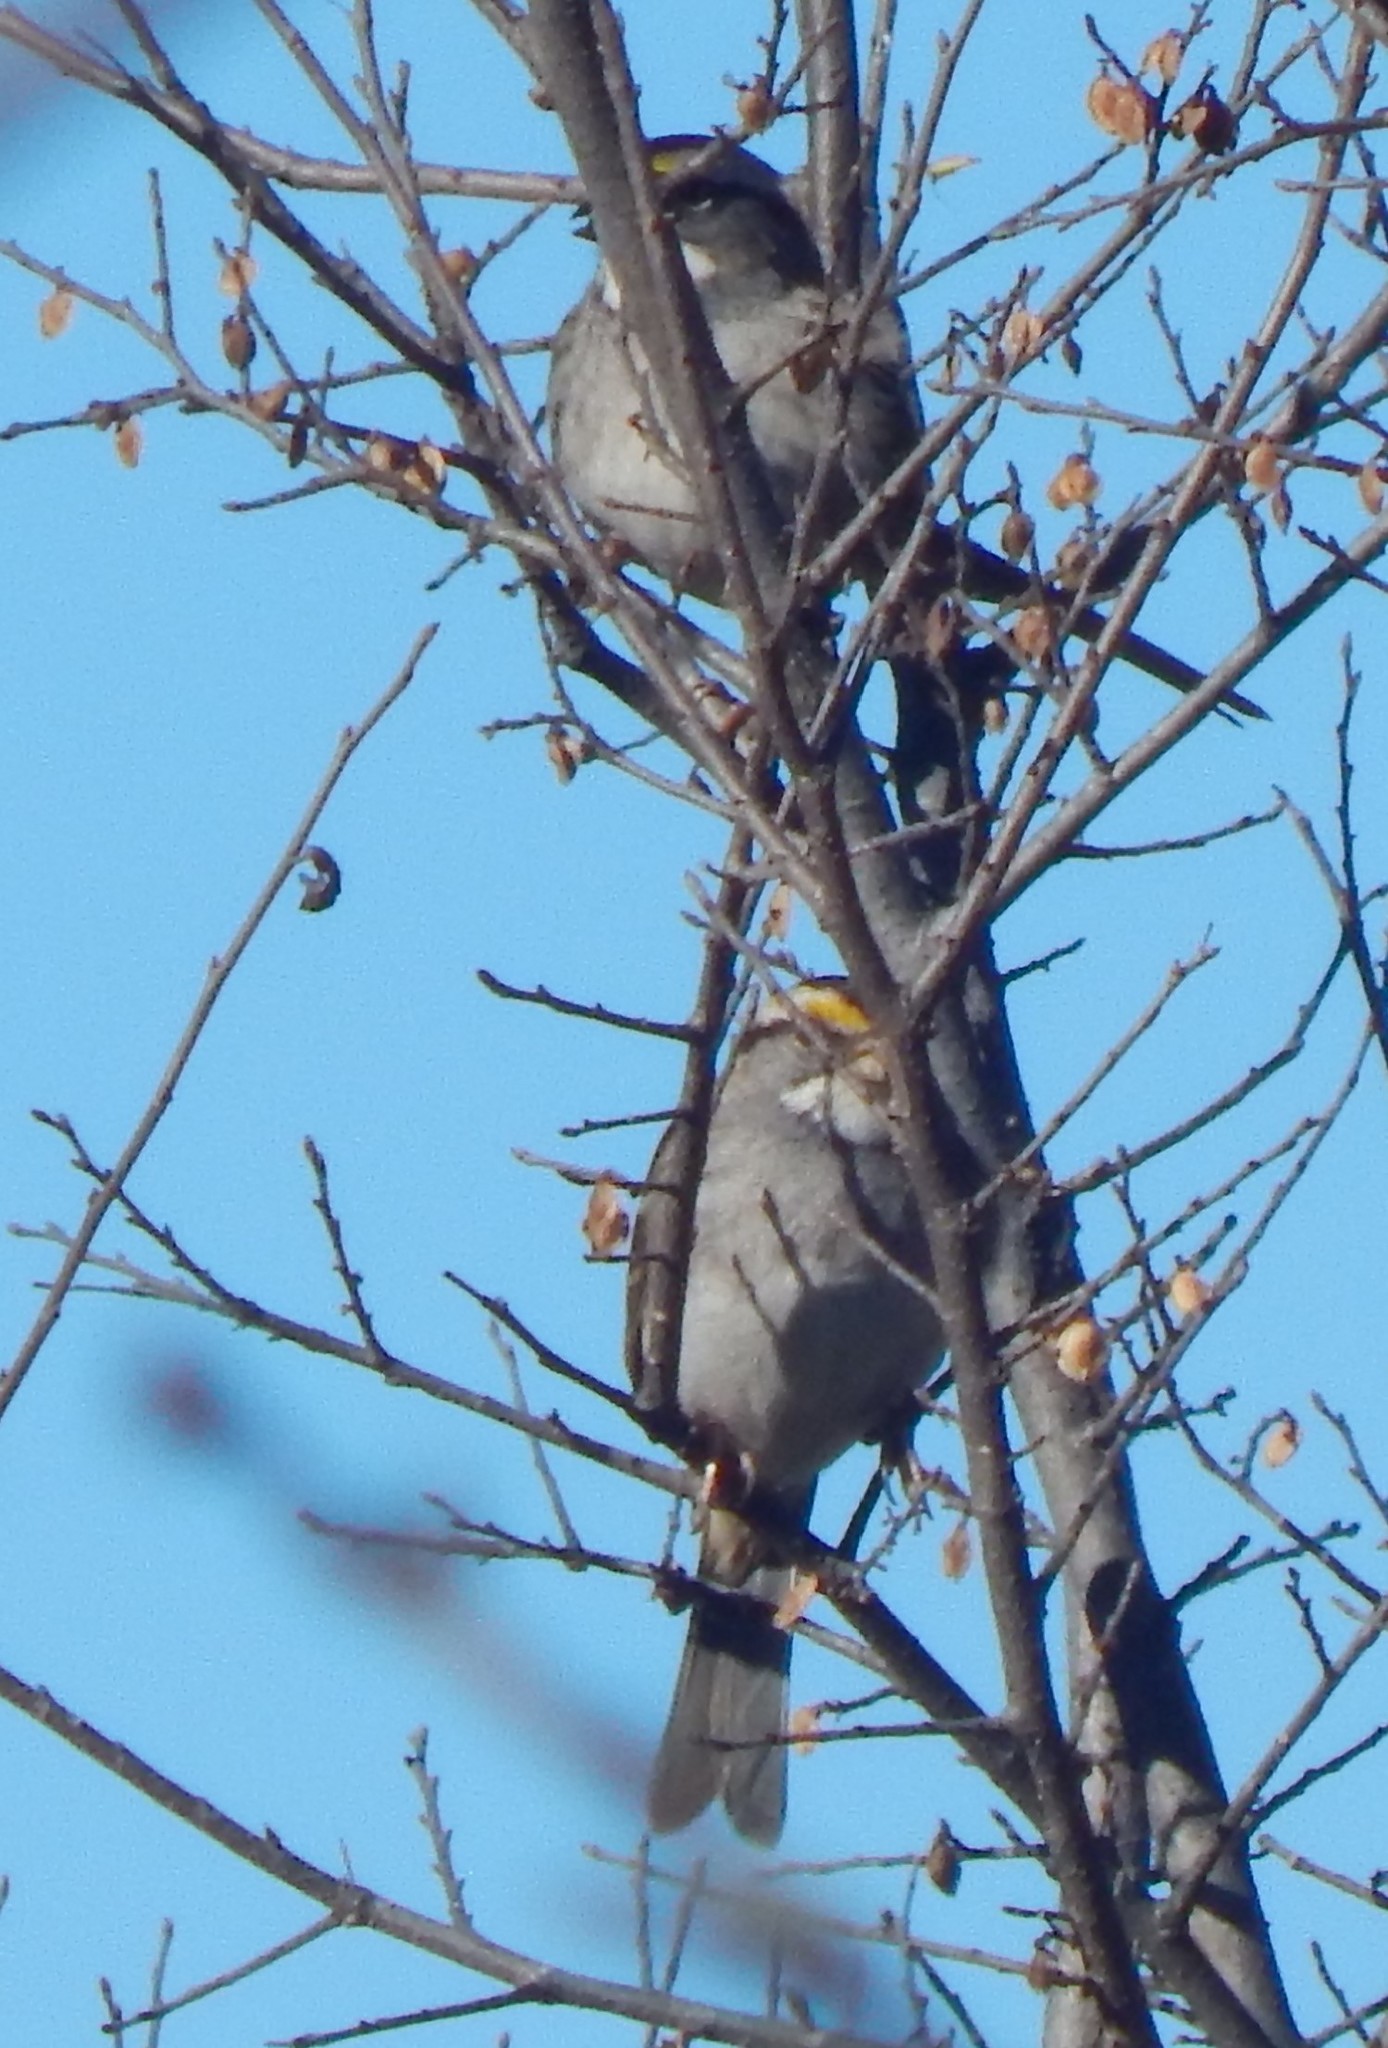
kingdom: Animalia
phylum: Chordata
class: Aves
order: Passeriformes
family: Passerellidae
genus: Zonotrichia
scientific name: Zonotrichia albicollis
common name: White-throated sparrow
